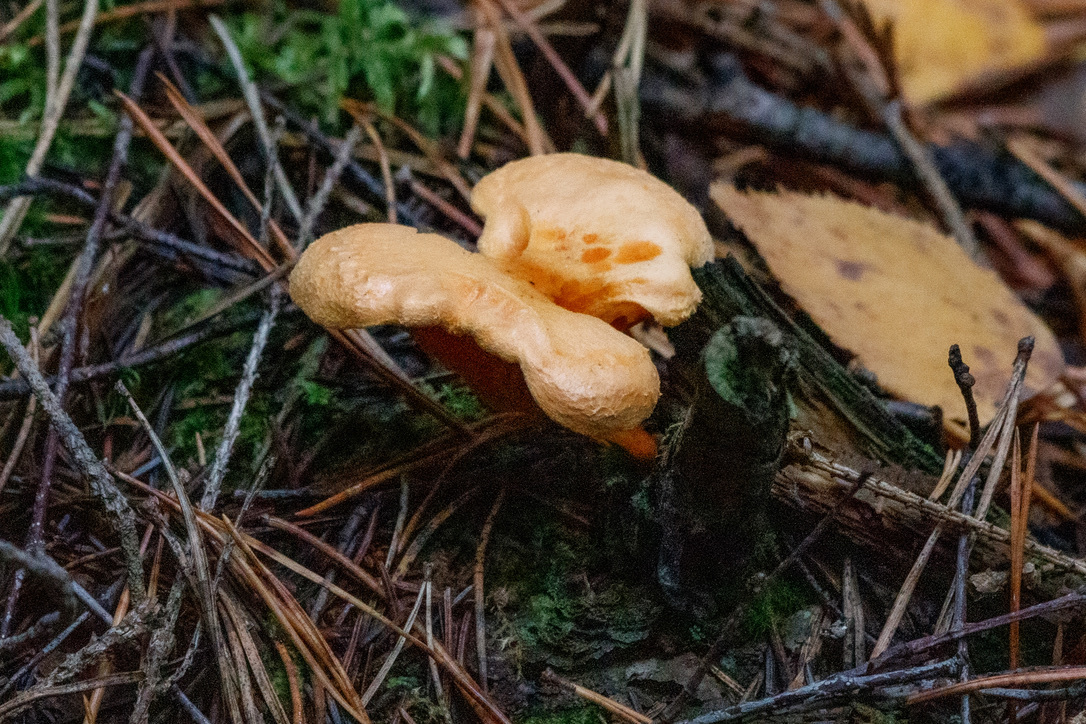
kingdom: Fungi
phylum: Basidiomycota
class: Agaricomycetes
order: Boletales
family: Hygrophoropsidaceae
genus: Hygrophoropsis
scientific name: Hygrophoropsis aurantiaca
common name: False chanterelle
